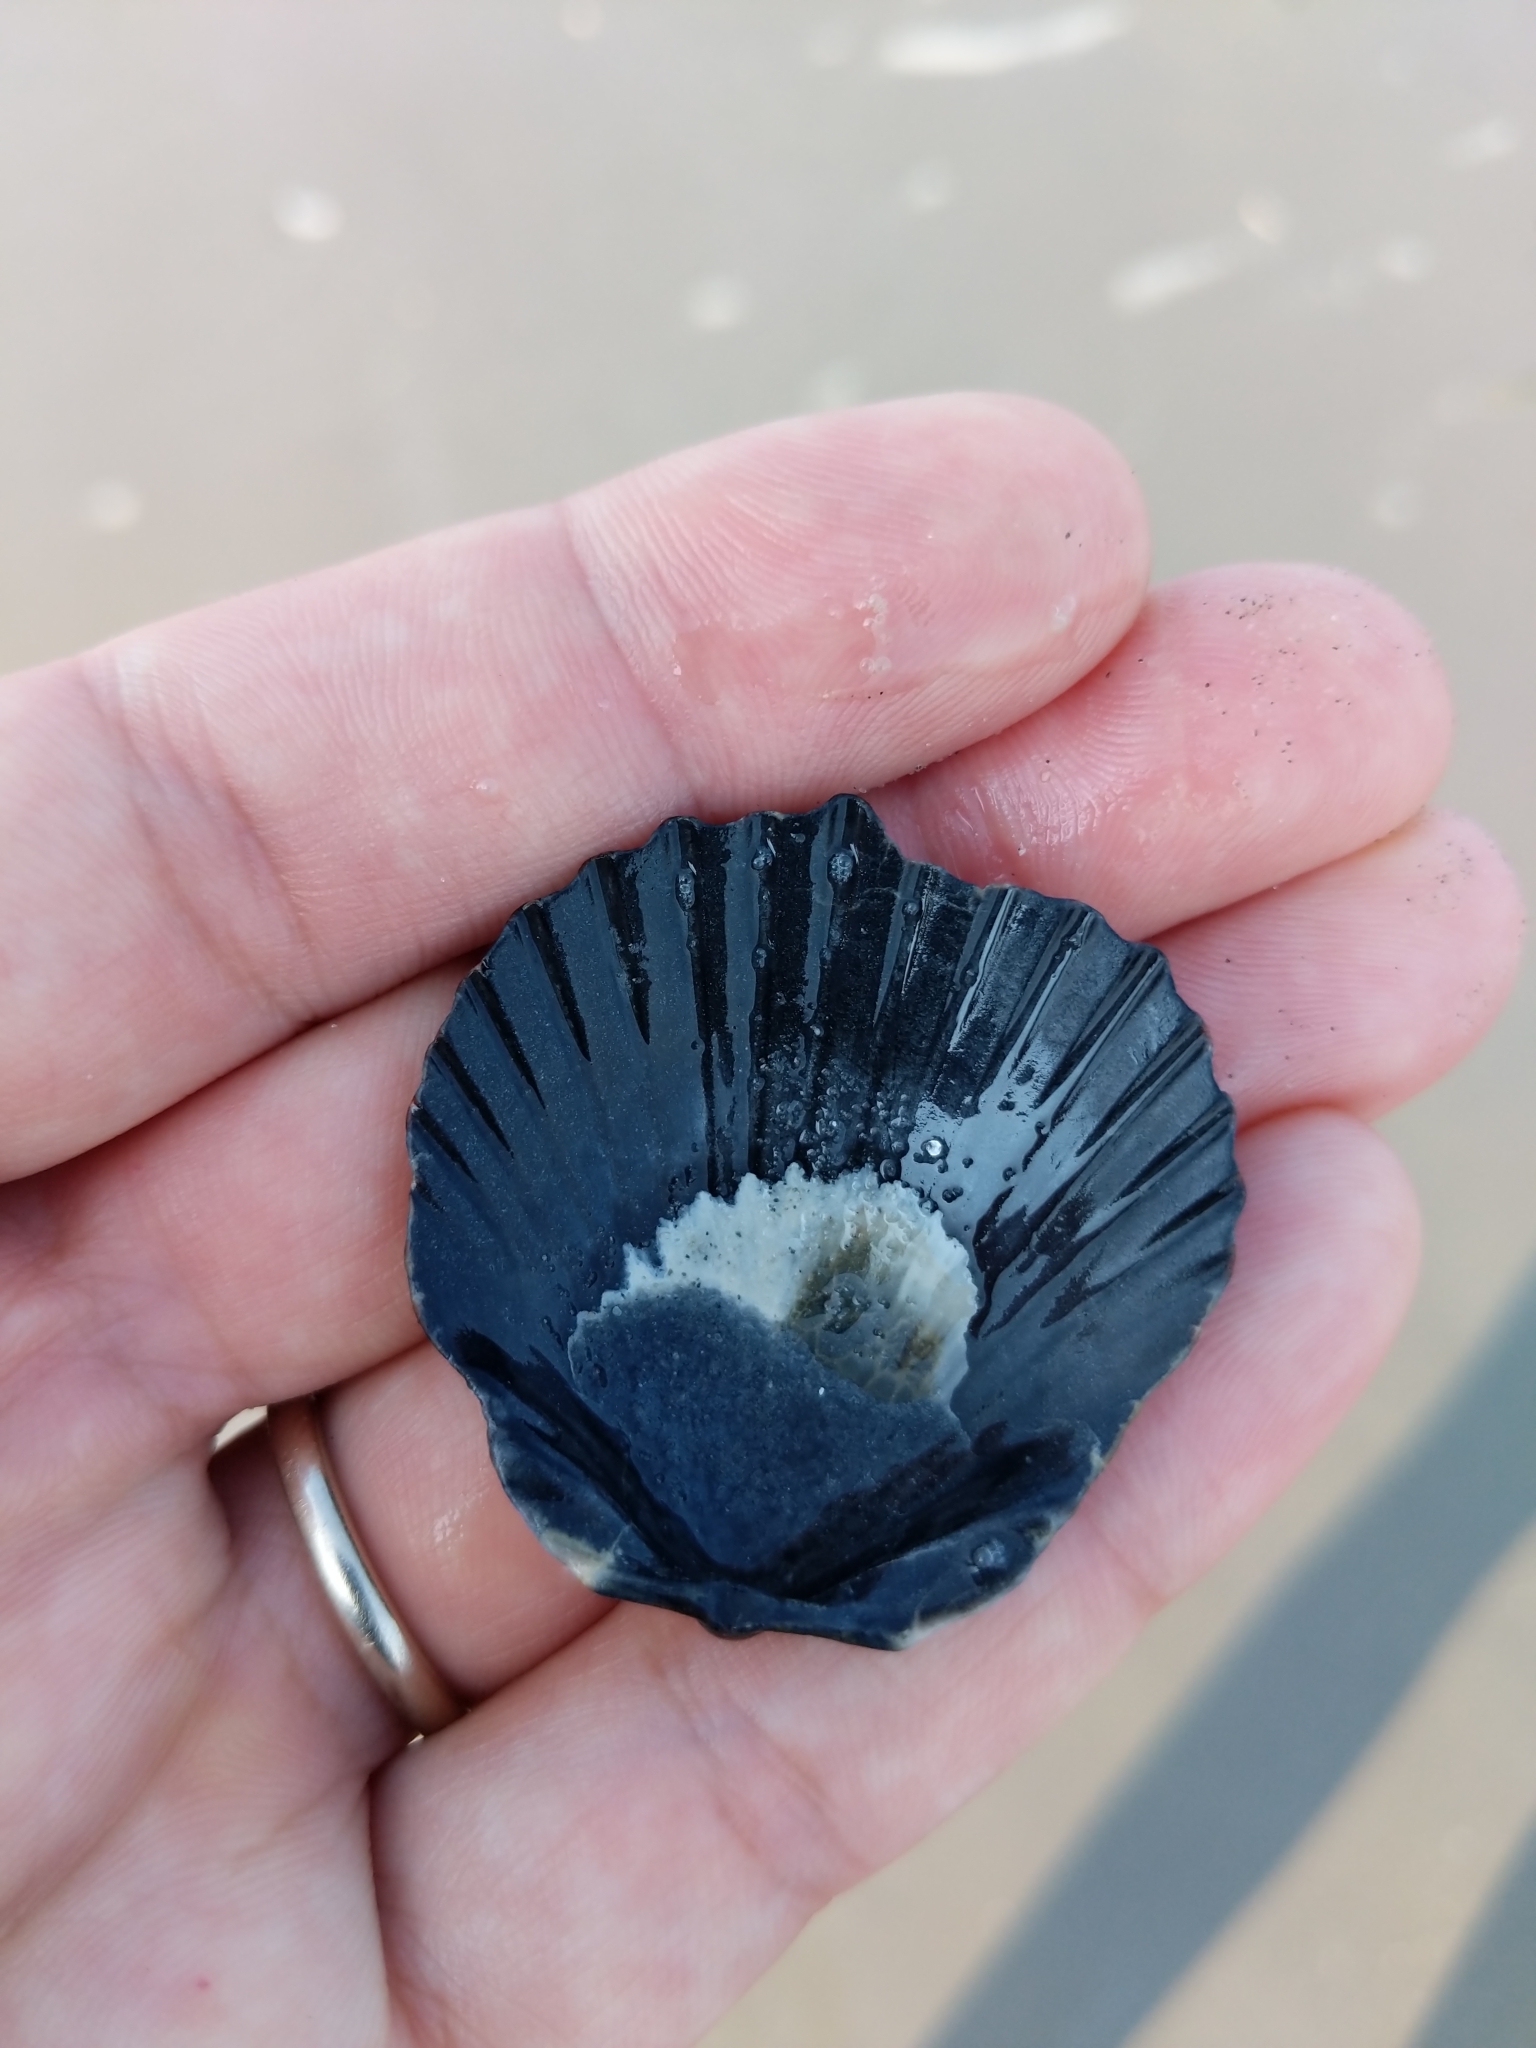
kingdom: Animalia
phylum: Mollusca
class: Bivalvia
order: Pectinida
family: Pectinidae
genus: Argopecten
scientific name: Argopecten irradians
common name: Atlantic bay scallop
